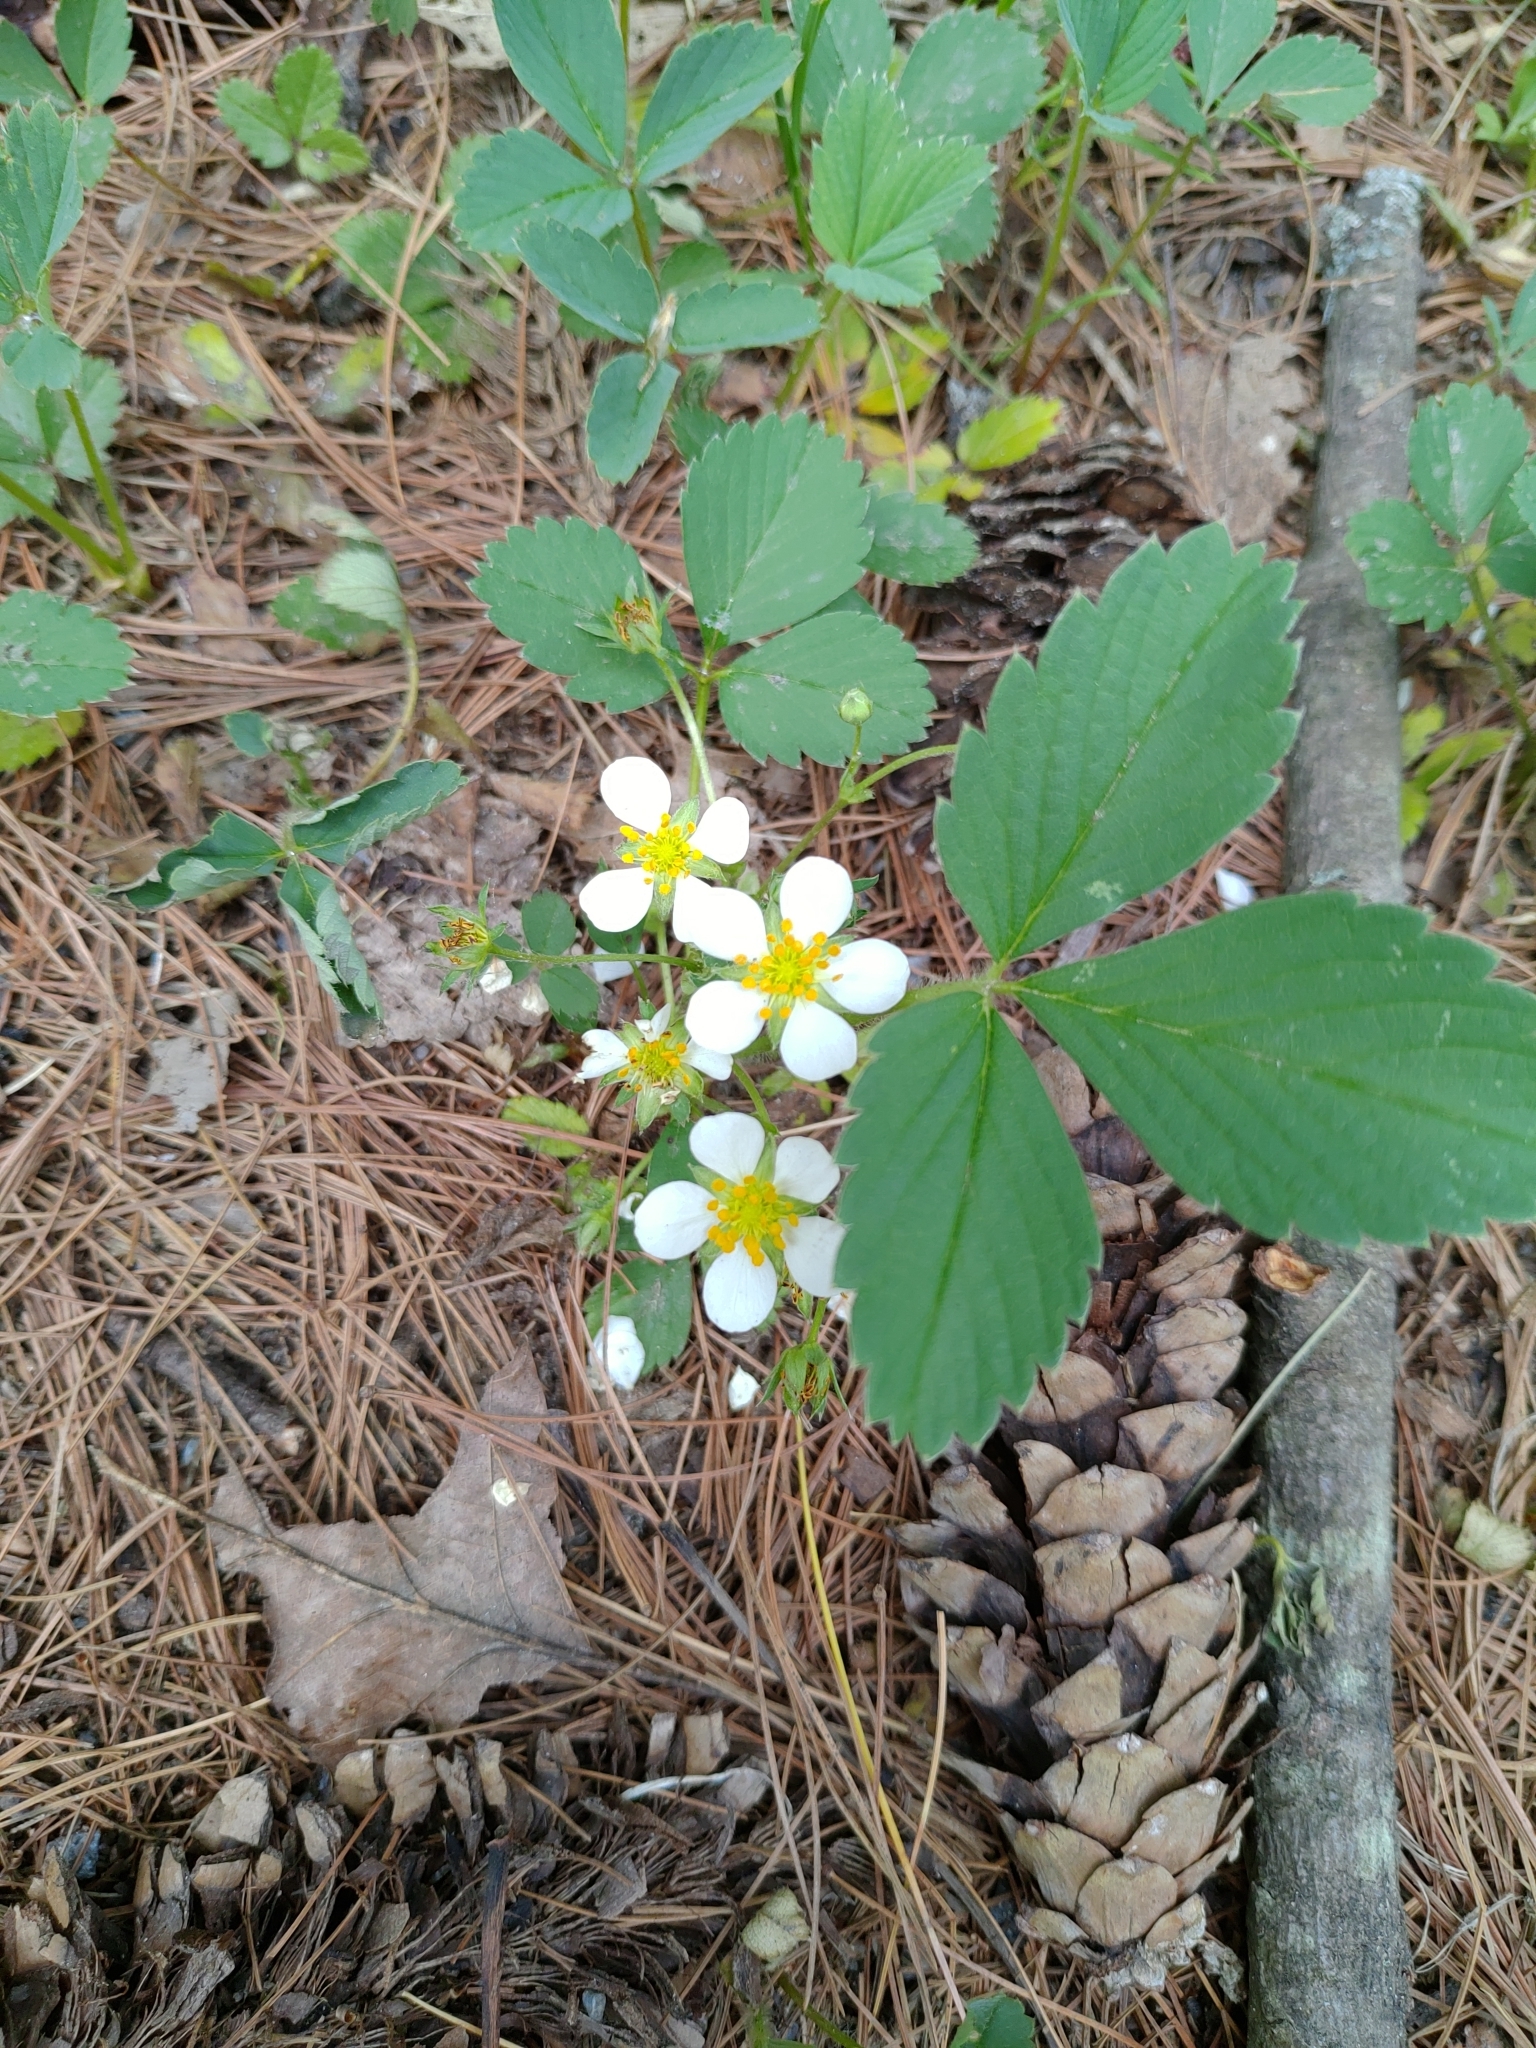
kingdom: Plantae
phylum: Tracheophyta
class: Magnoliopsida
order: Rosales
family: Rosaceae
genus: Fragaria
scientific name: Fragaria virginiana
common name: Thickleaved wild strawberry
